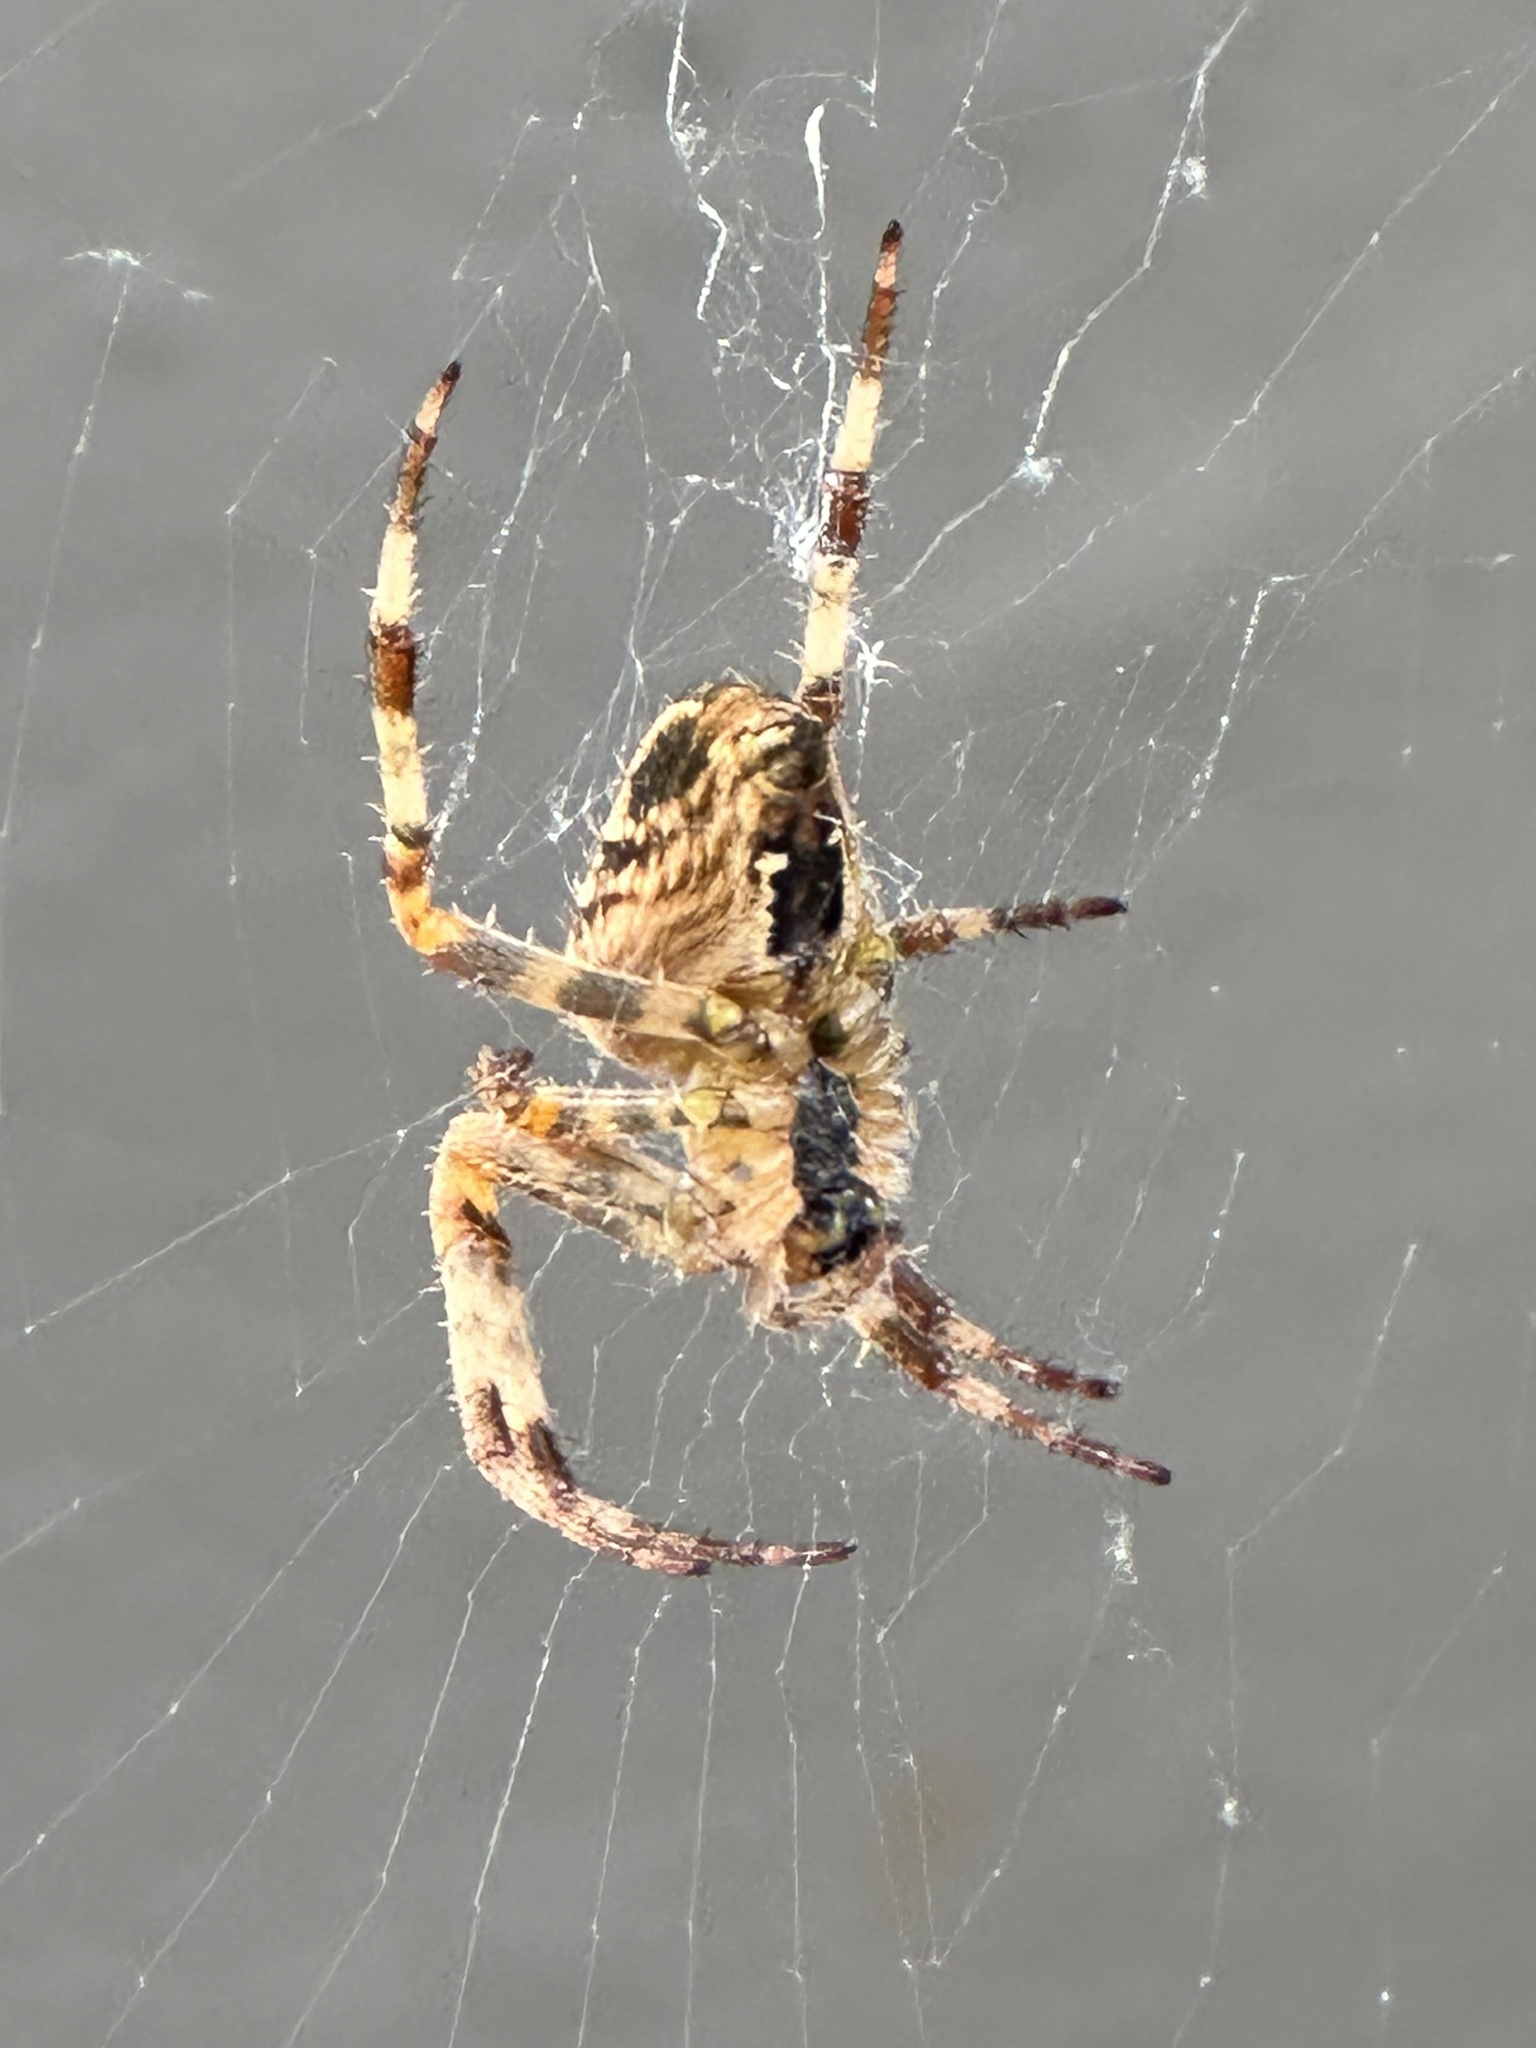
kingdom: Animalia
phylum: Arthropoda
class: Arachnida
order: Araneae
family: Araneidae
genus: Araneus
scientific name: Araneus diadematus
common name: Cross orbweaver
